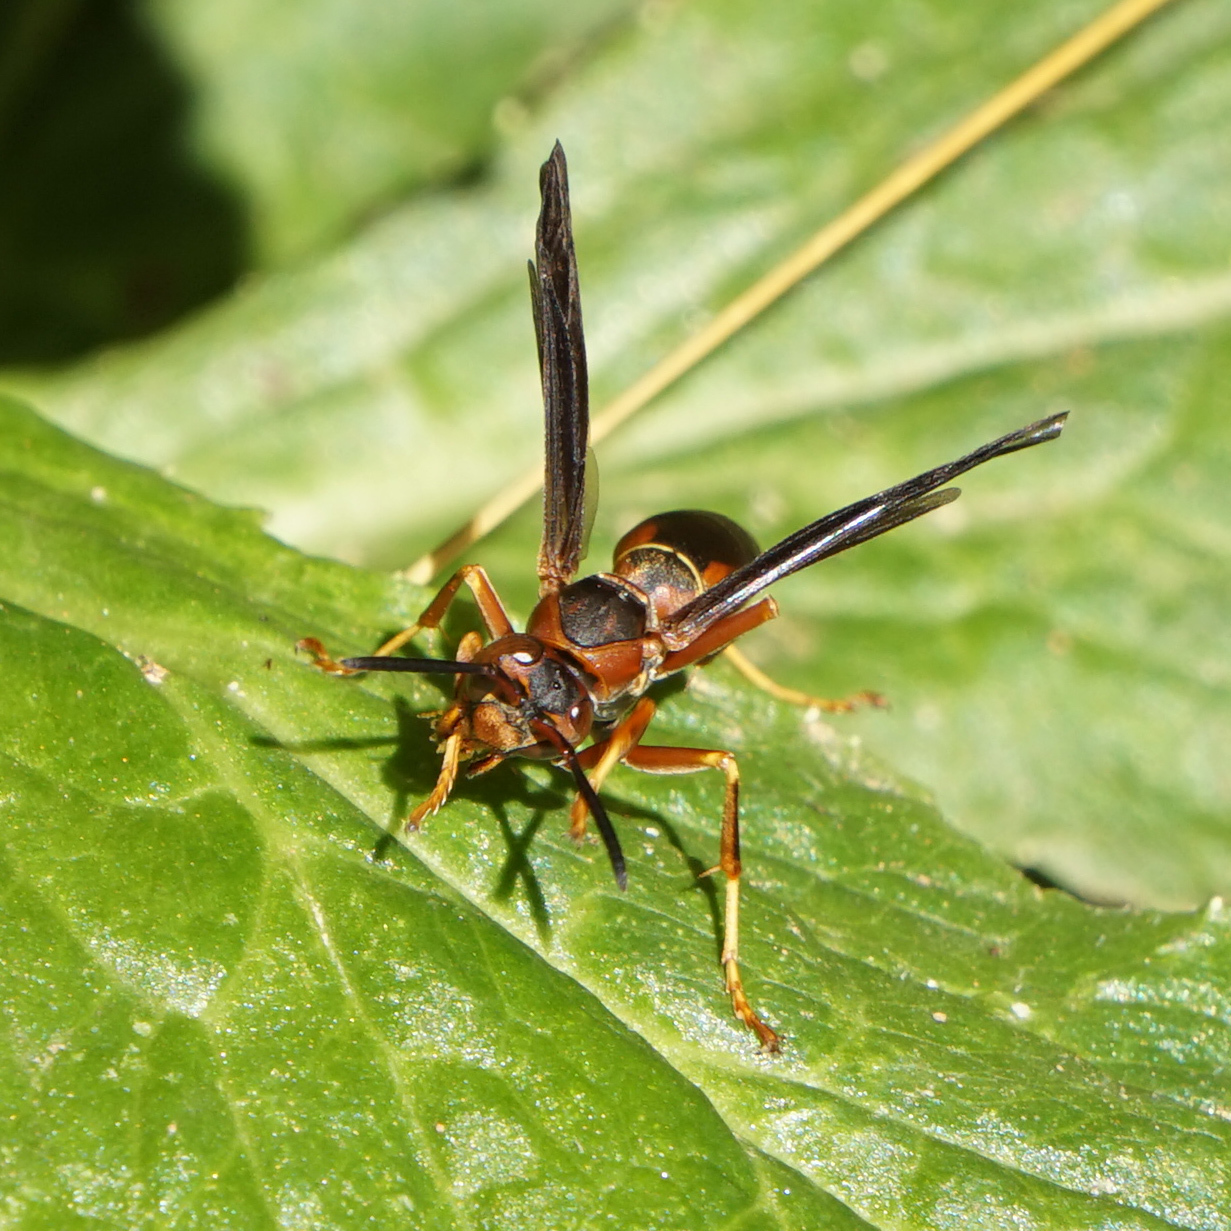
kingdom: Animalia
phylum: Arthropoda
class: Insecta
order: Hymenoptera
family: Eumenidae
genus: Polistes
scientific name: Polistes fuscatus
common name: Dark paper wasp
